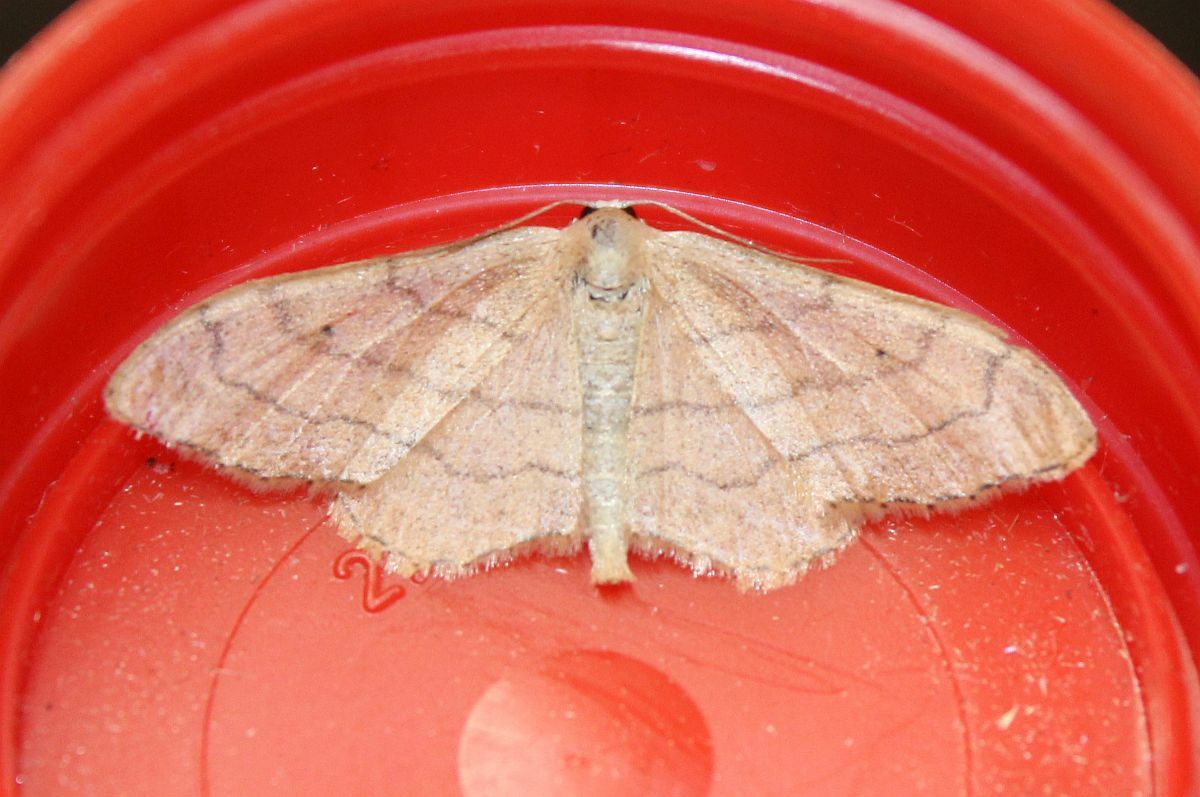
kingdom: Animalia
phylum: Arthropoda
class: Insecta
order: Lepidoptera
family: Geometridae
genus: Idaea
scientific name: Idaea aversata
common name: Riband wave
